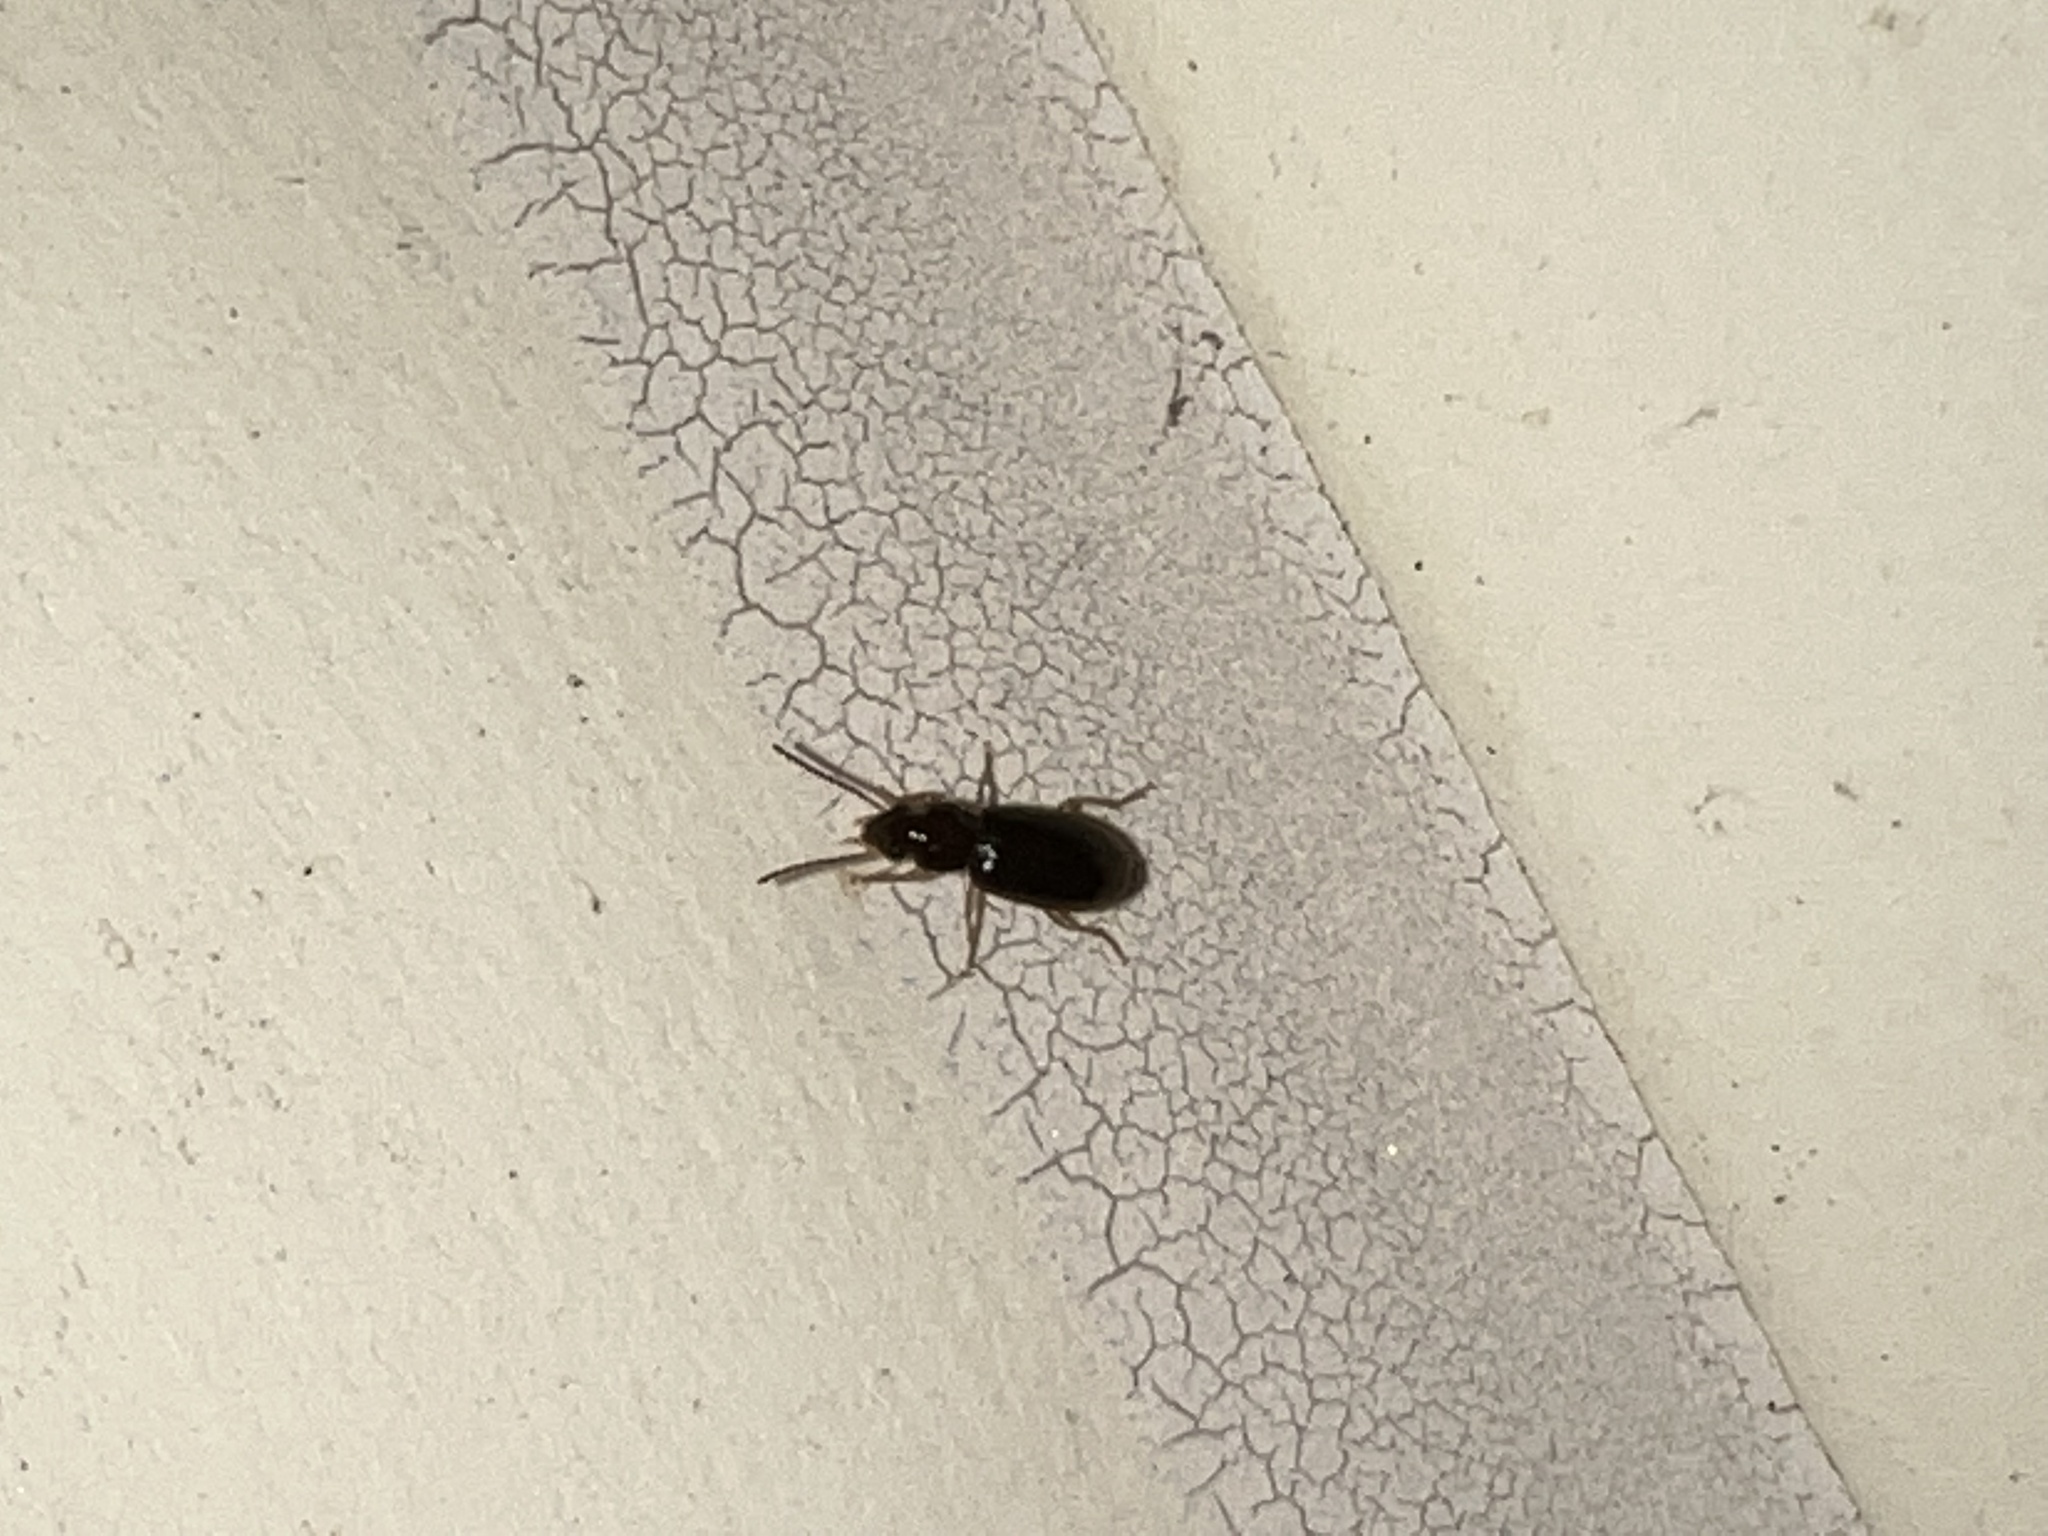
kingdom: Animalia
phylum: Arthropoda
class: Insecta
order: Coleoptera
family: Carabidae
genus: Stenolophus
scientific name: Stenolophus ochropezus
